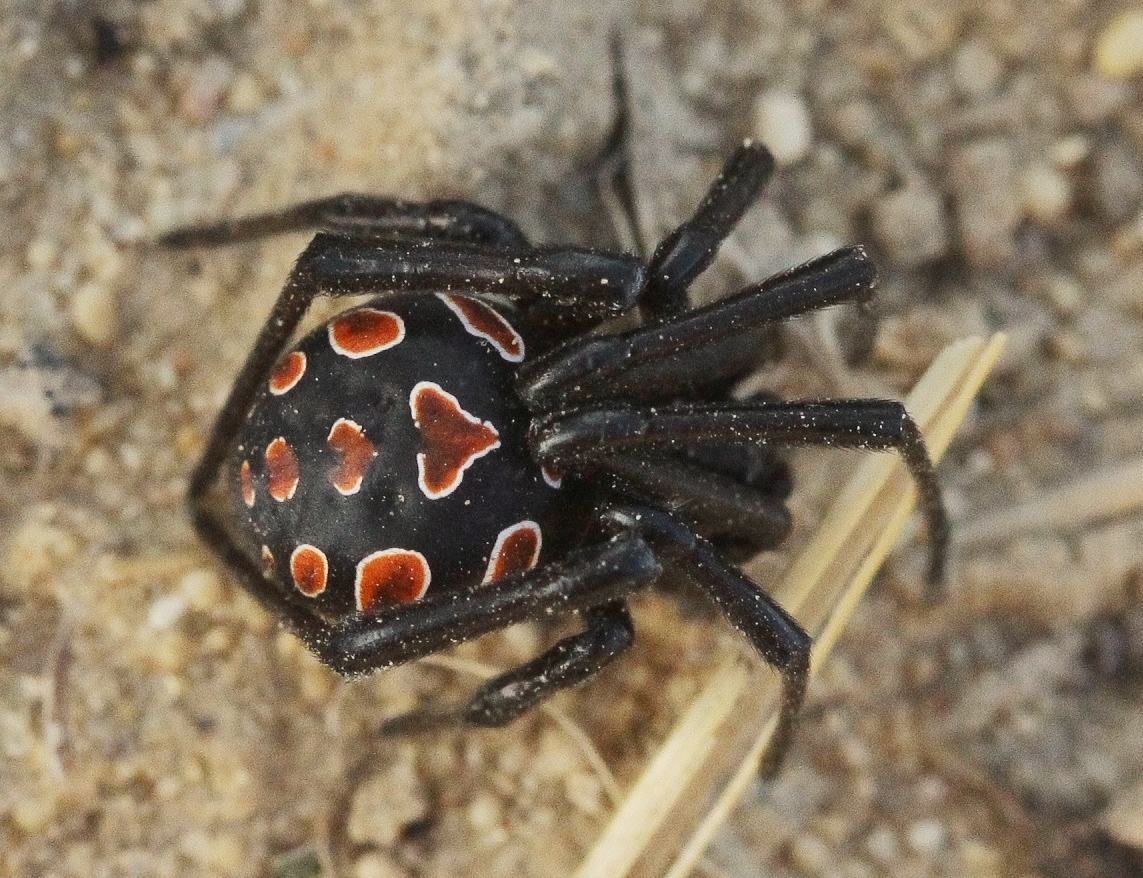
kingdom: Animalia
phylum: Arthropoda
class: Arachnida
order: Araneae
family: Theridiidae
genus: Latrodectus
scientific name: Latrodectus tredecimguttatus
